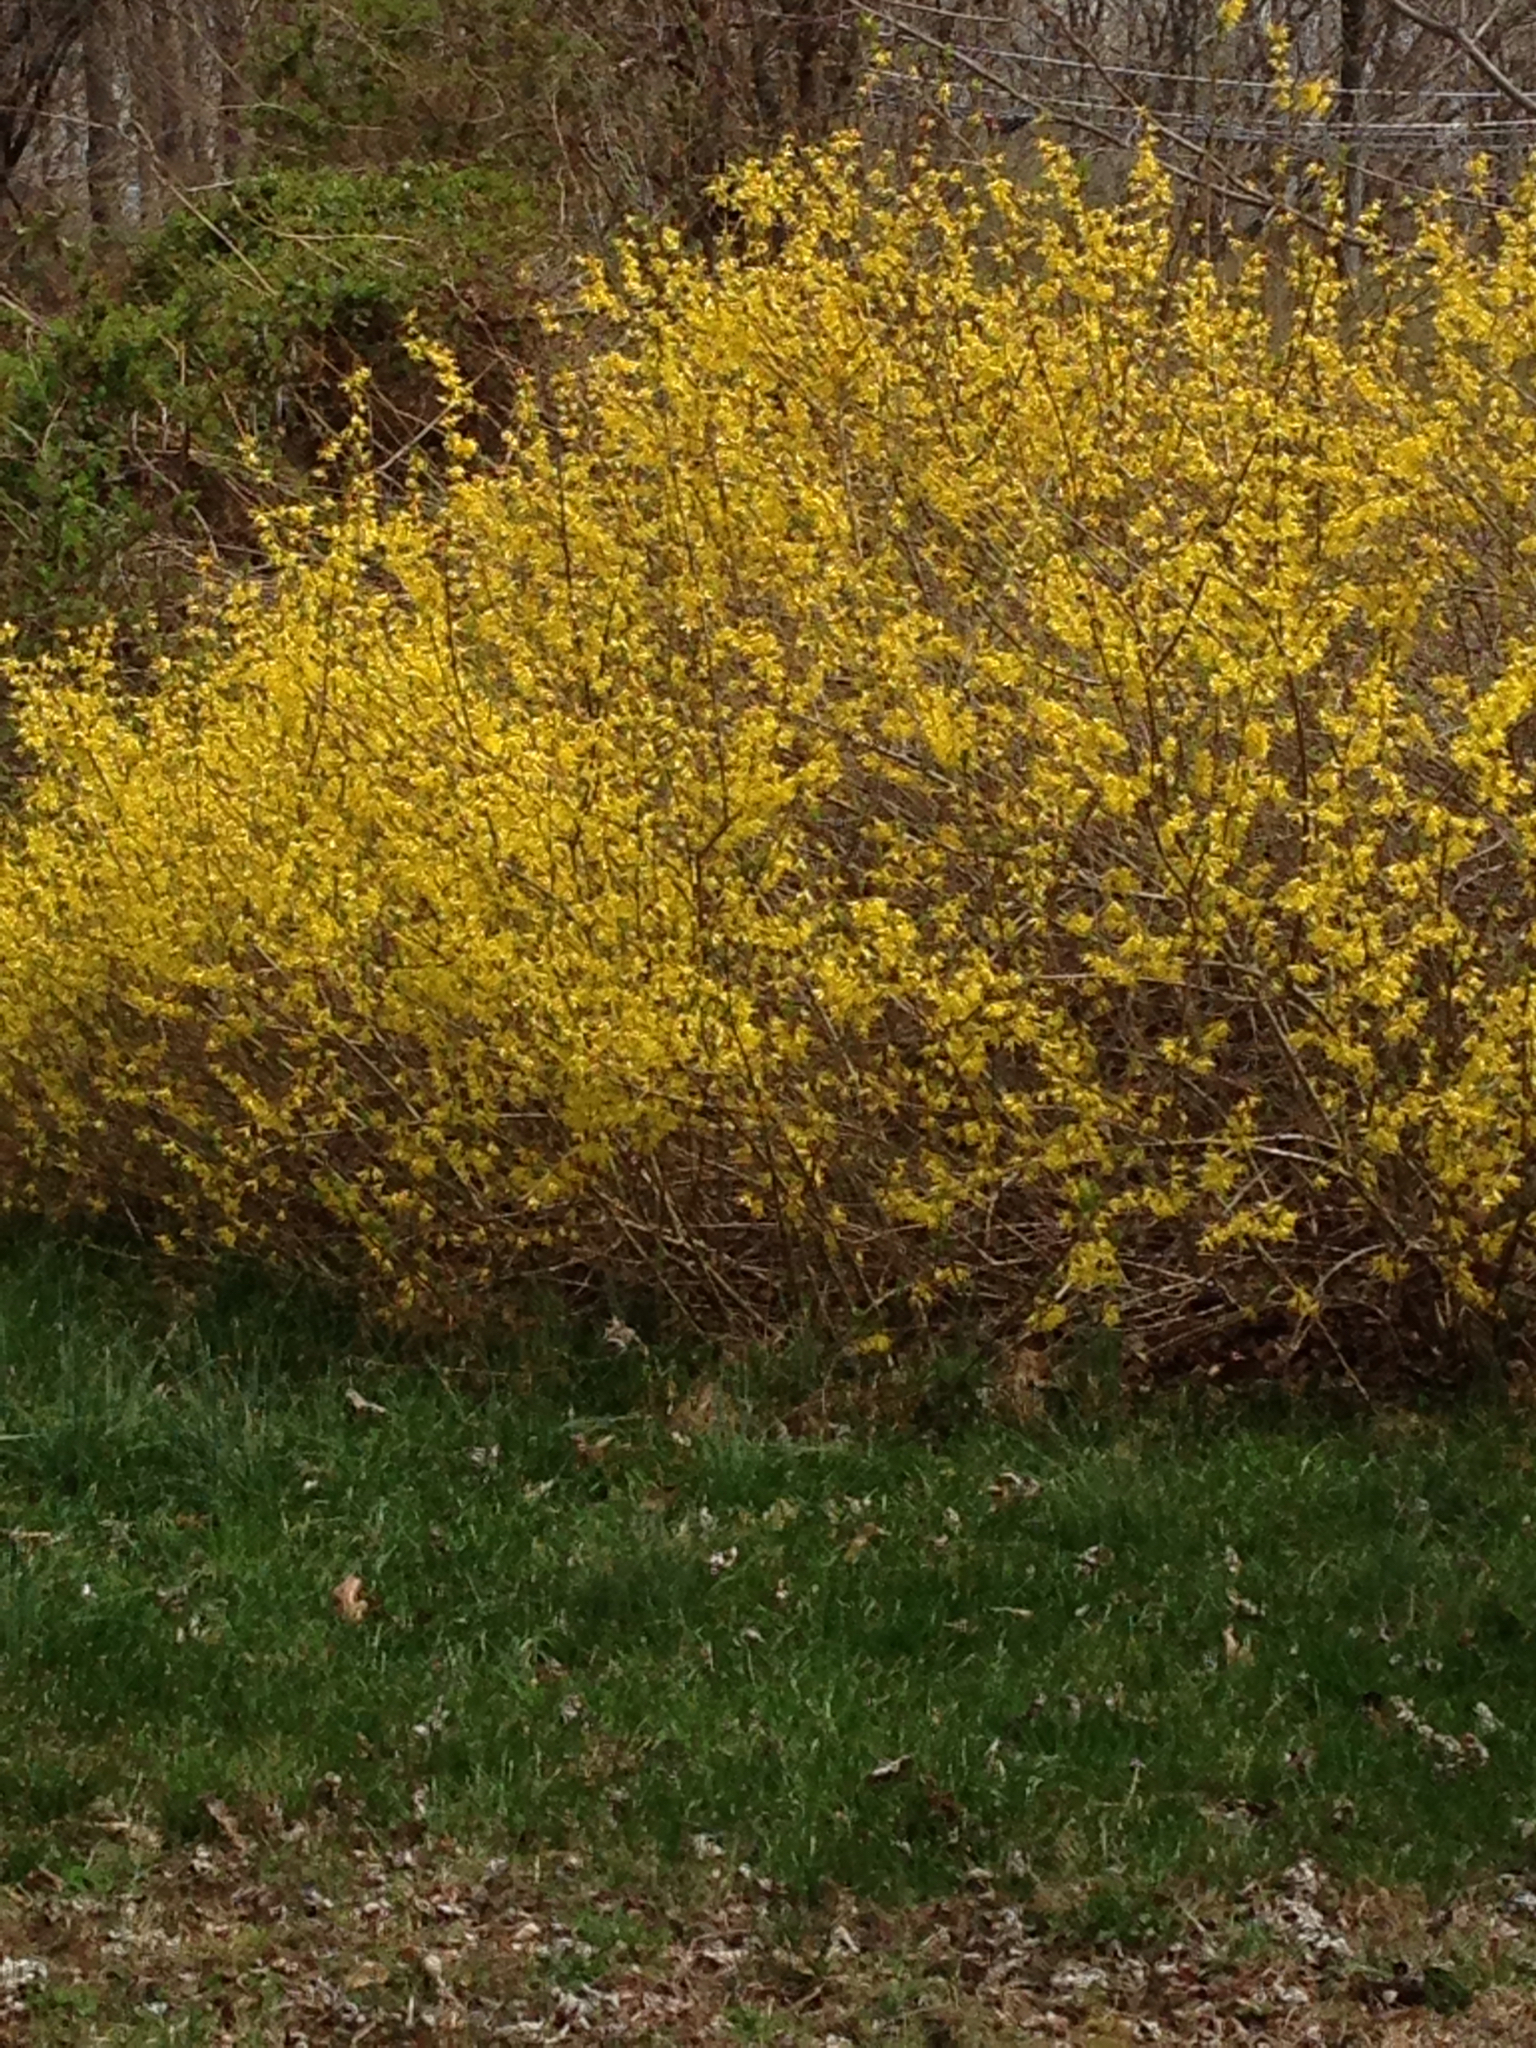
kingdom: Plantae
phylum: Tracheophyta
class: Magnoliopsida
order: Lamiales
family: Oleaceae
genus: Forsythia
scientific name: Forsythia intermedia
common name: Forsythia
